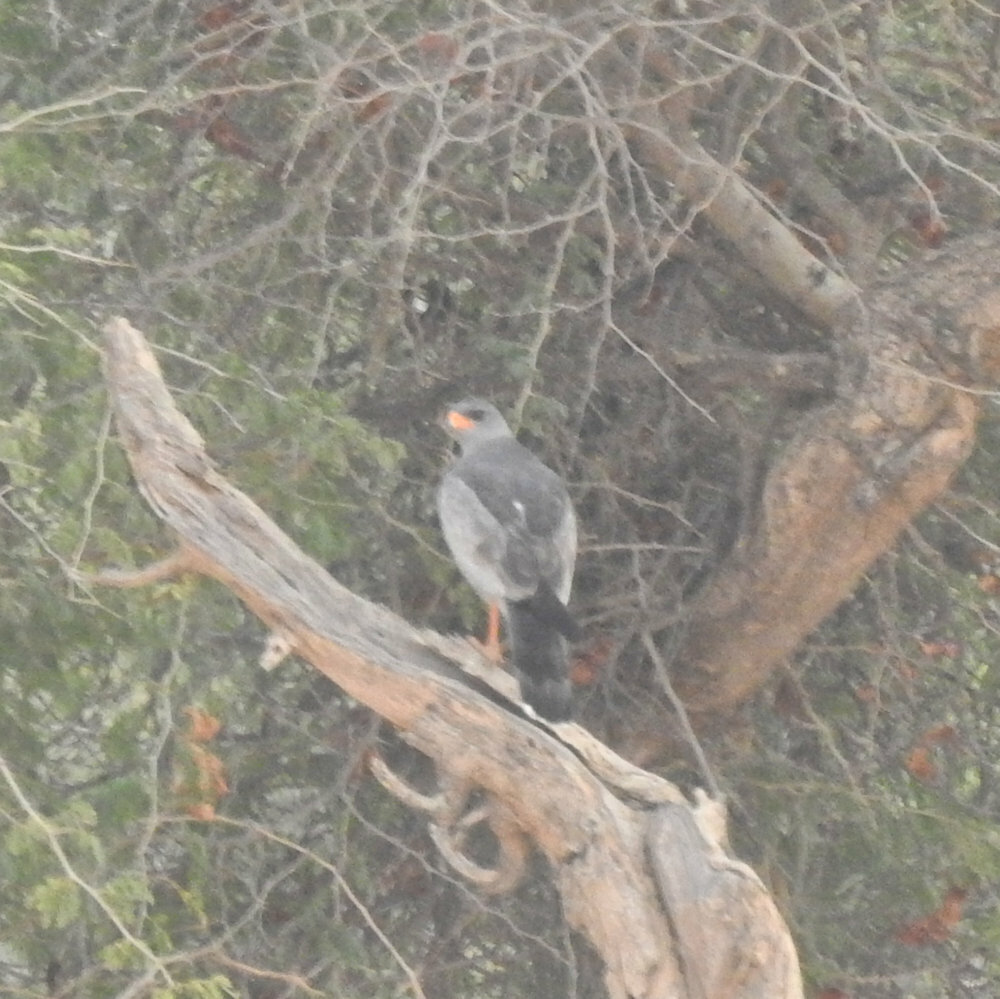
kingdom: Animalia
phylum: Chordata
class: Aves
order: Accipitriformes
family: Accipitridae
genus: Melierax
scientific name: Melierax canorus
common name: Pale chanting-goshawk
